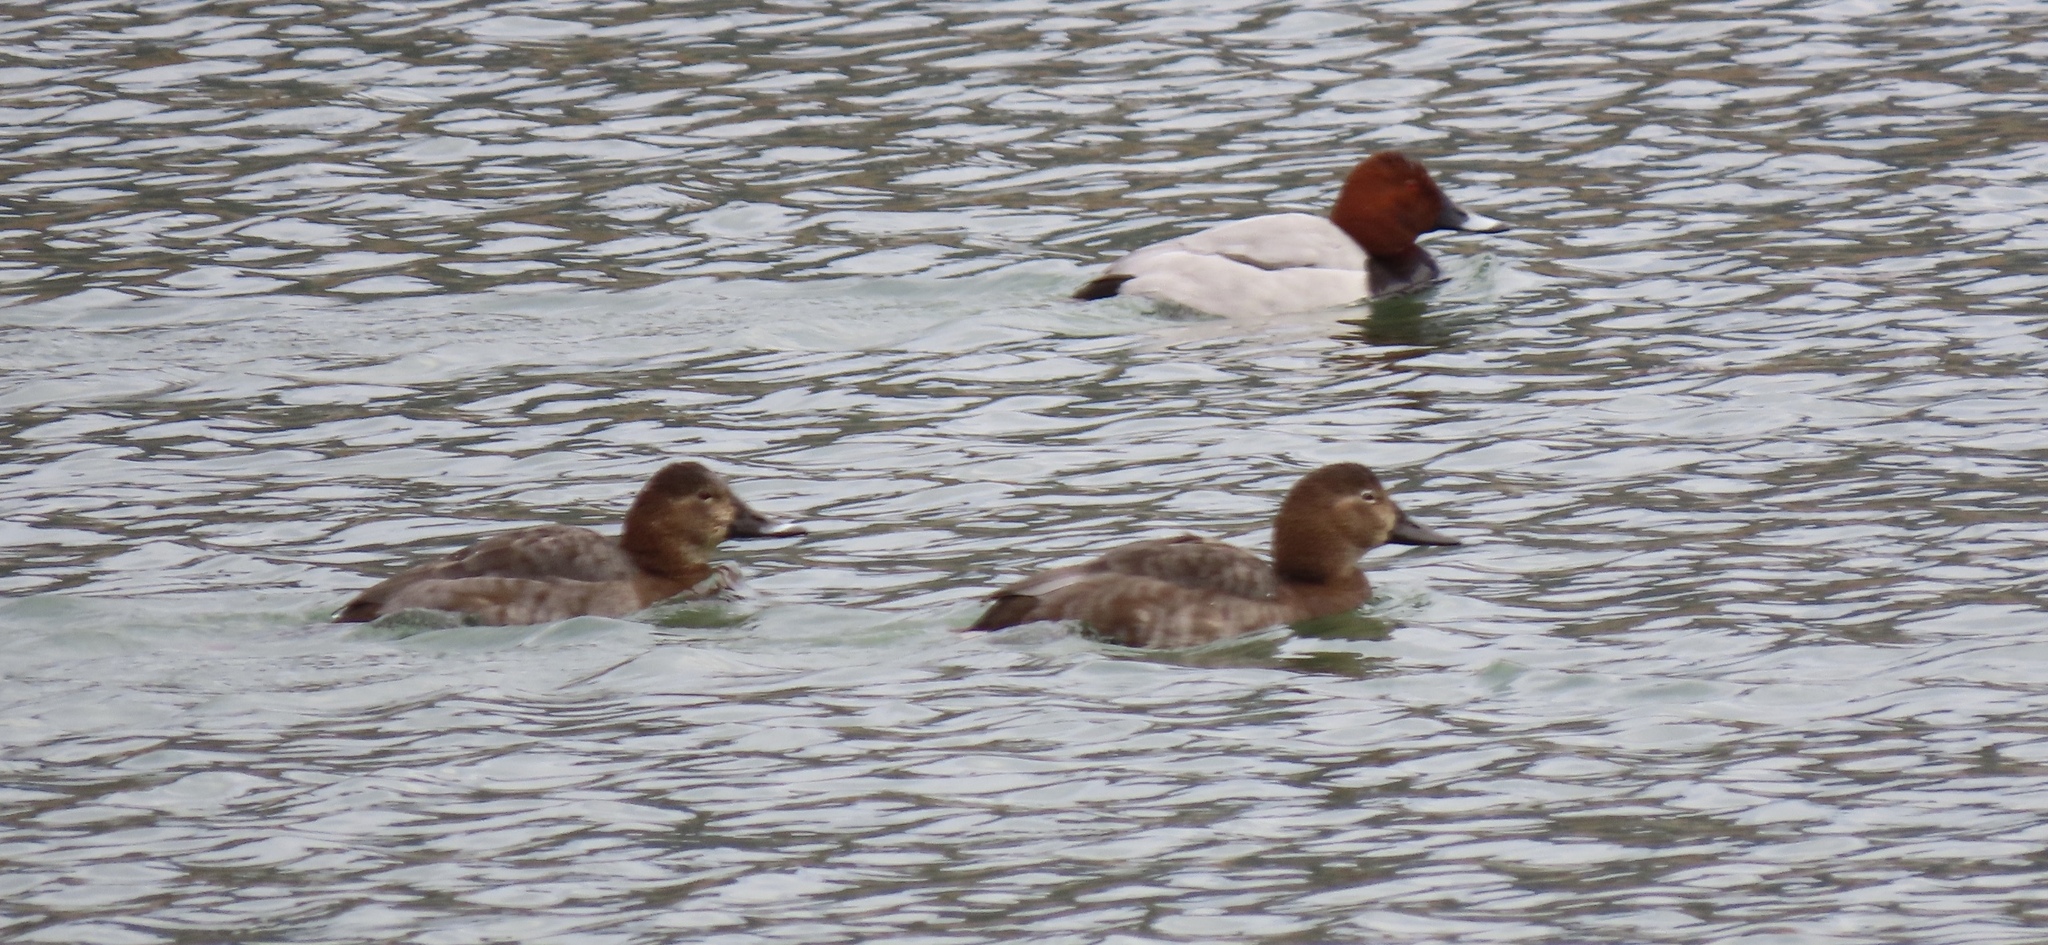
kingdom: Animalia
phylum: Chordata
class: Aves
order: Anseriformes
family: Anatidae
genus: Aythya
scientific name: Aythya ferina
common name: Common pochard
